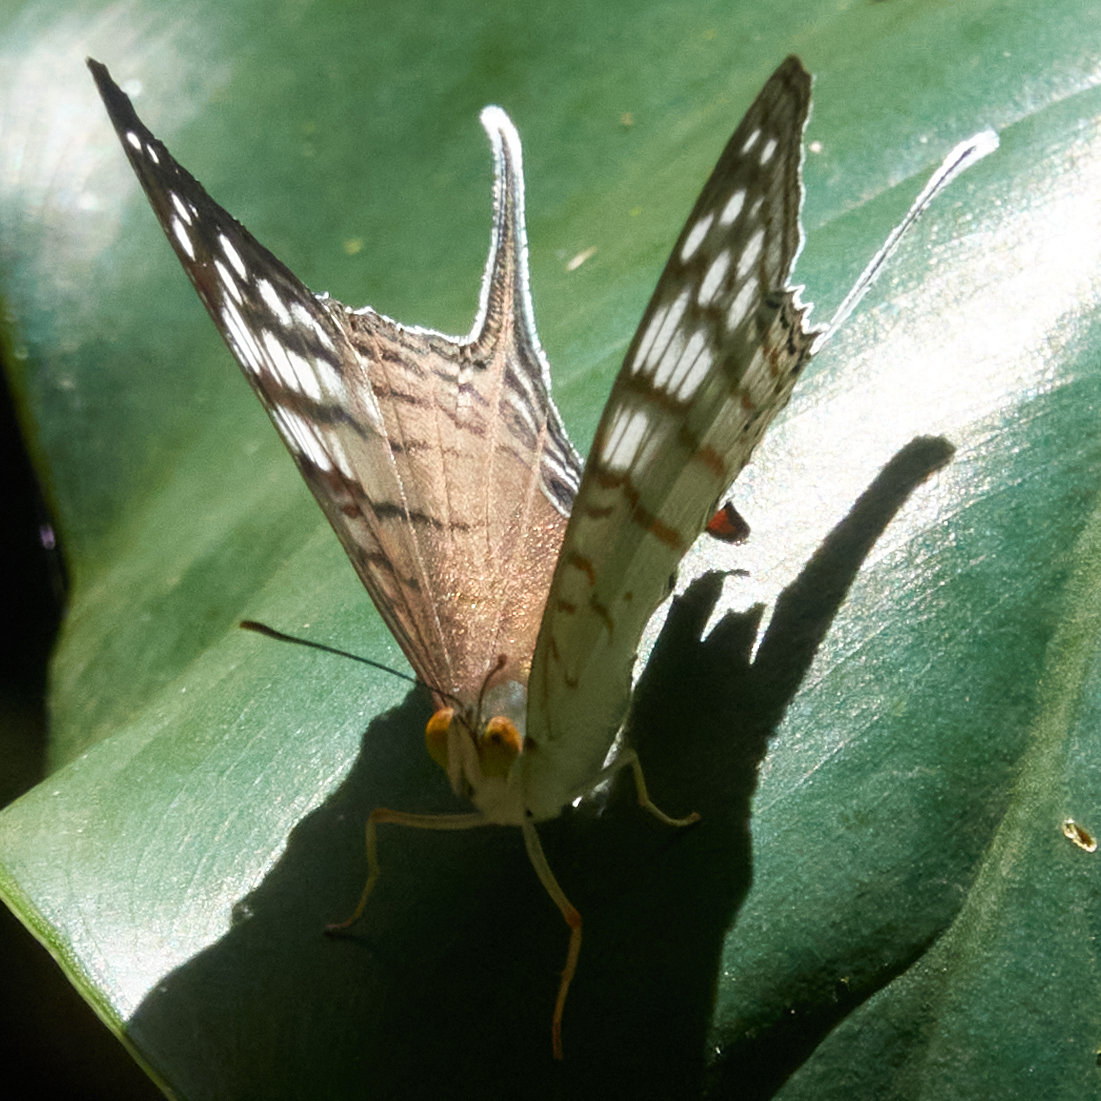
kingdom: Animalia
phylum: Arthropoda
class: Insecta
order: Lepidoptera
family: Nymphalidae
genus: Marpesia
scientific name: Marpesia merops
